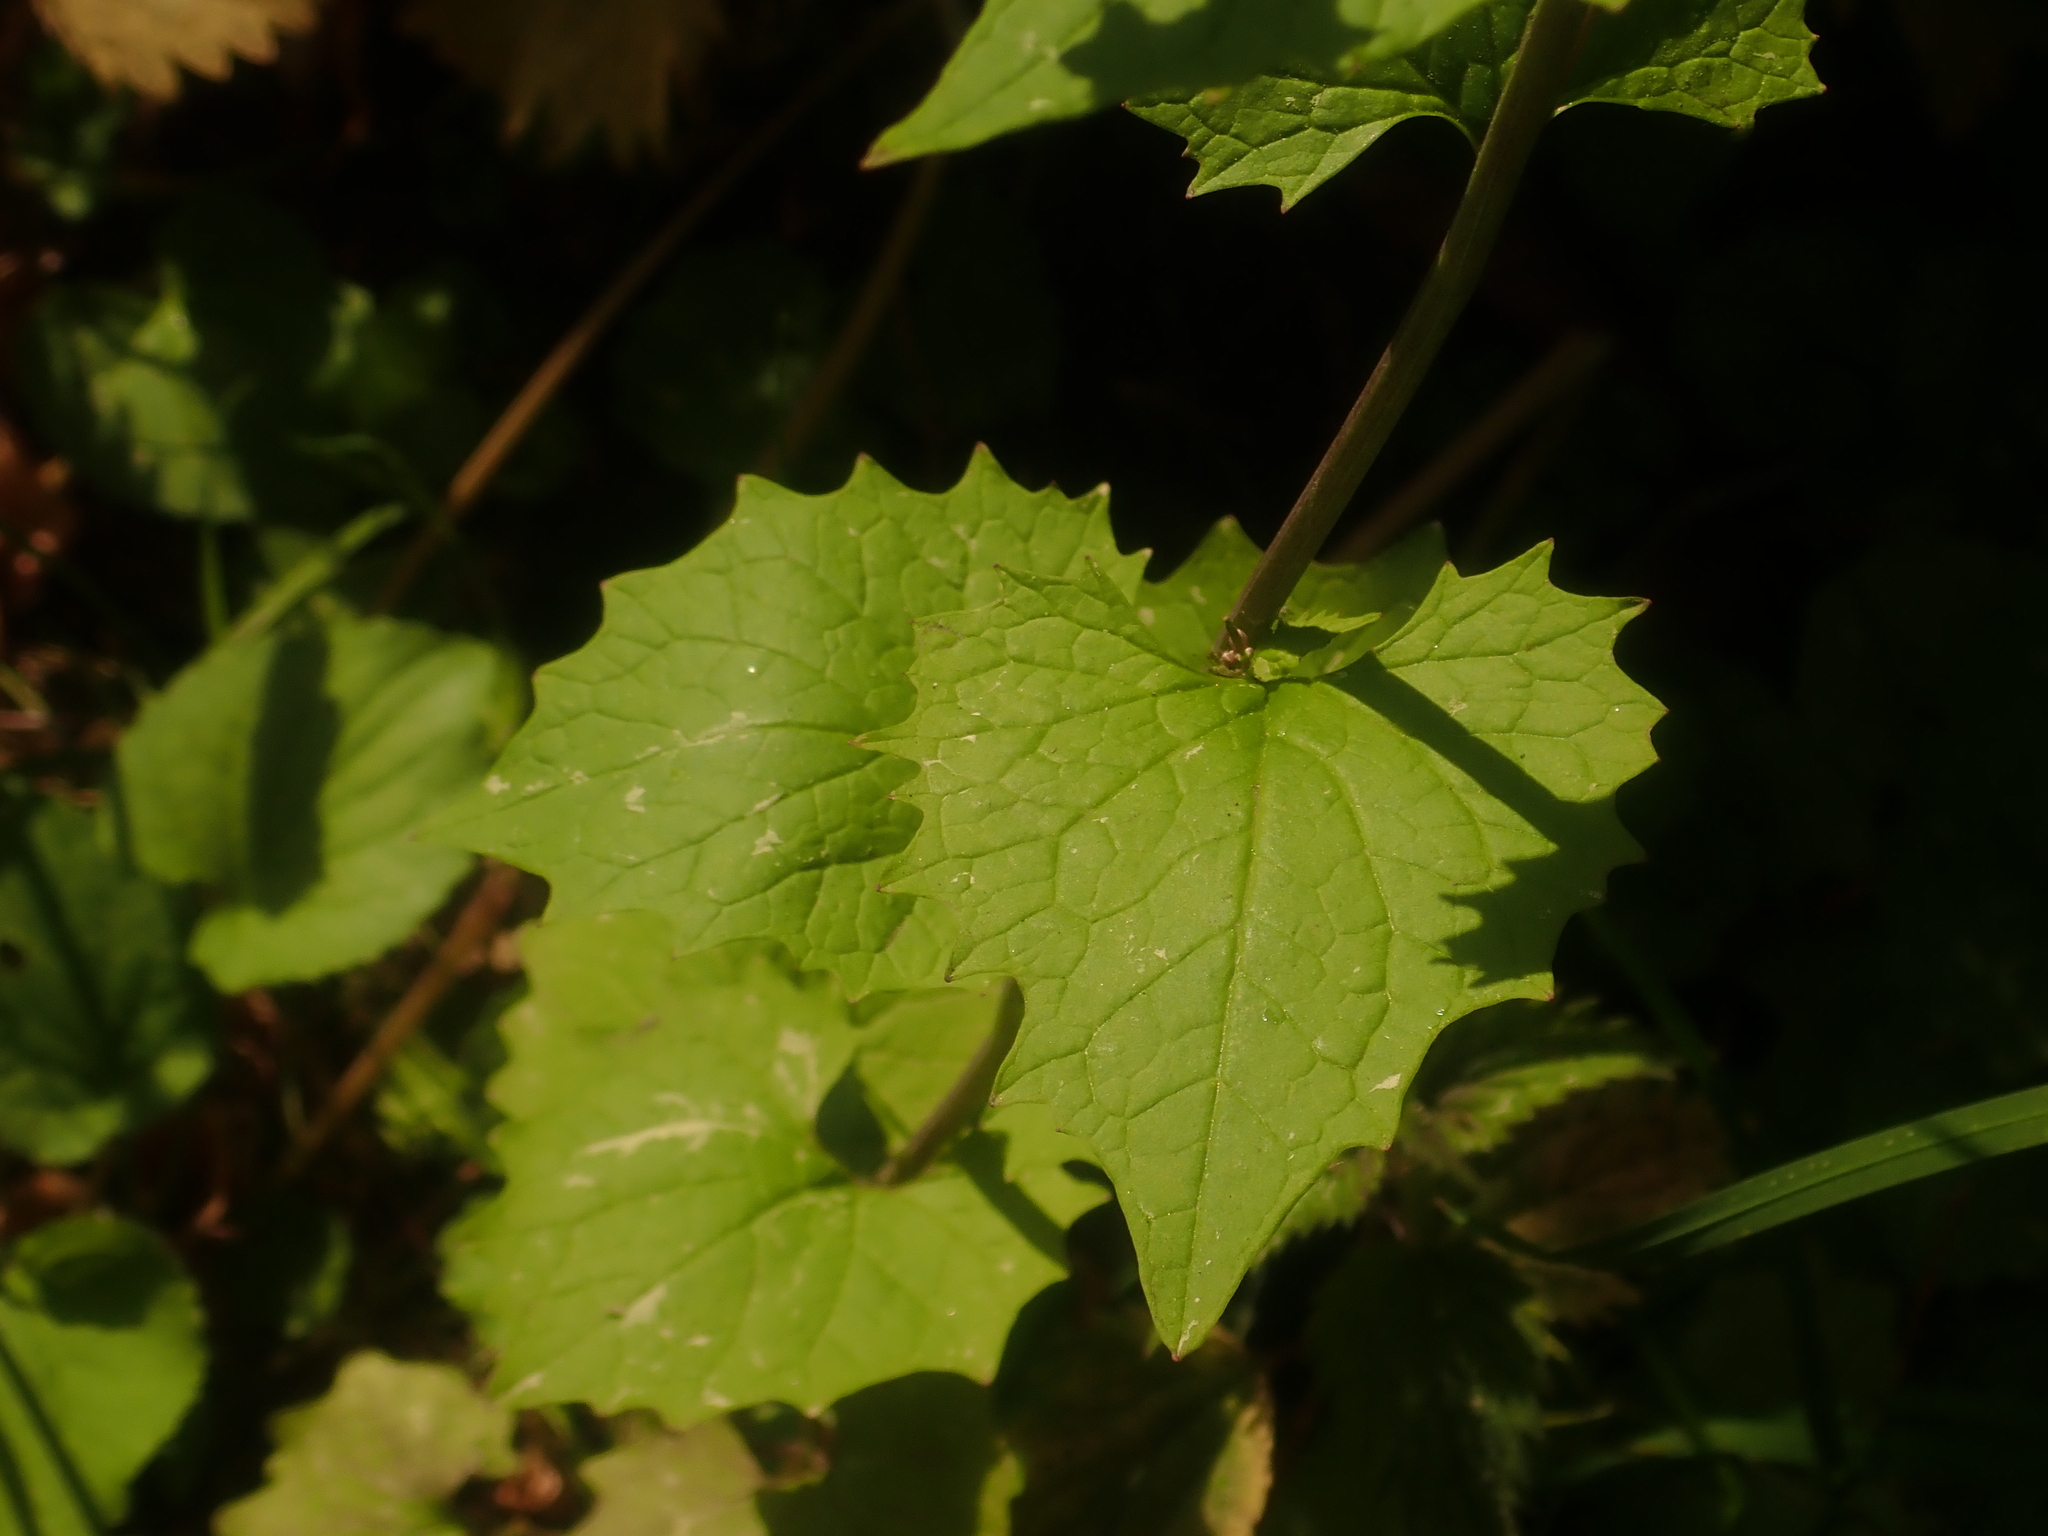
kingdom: Plantae
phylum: Tracheophyta
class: Magnoliopsida
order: Brassicales
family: Brassicaceae
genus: Alliaria
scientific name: Alliaria petiolata
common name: Garlic mustard
